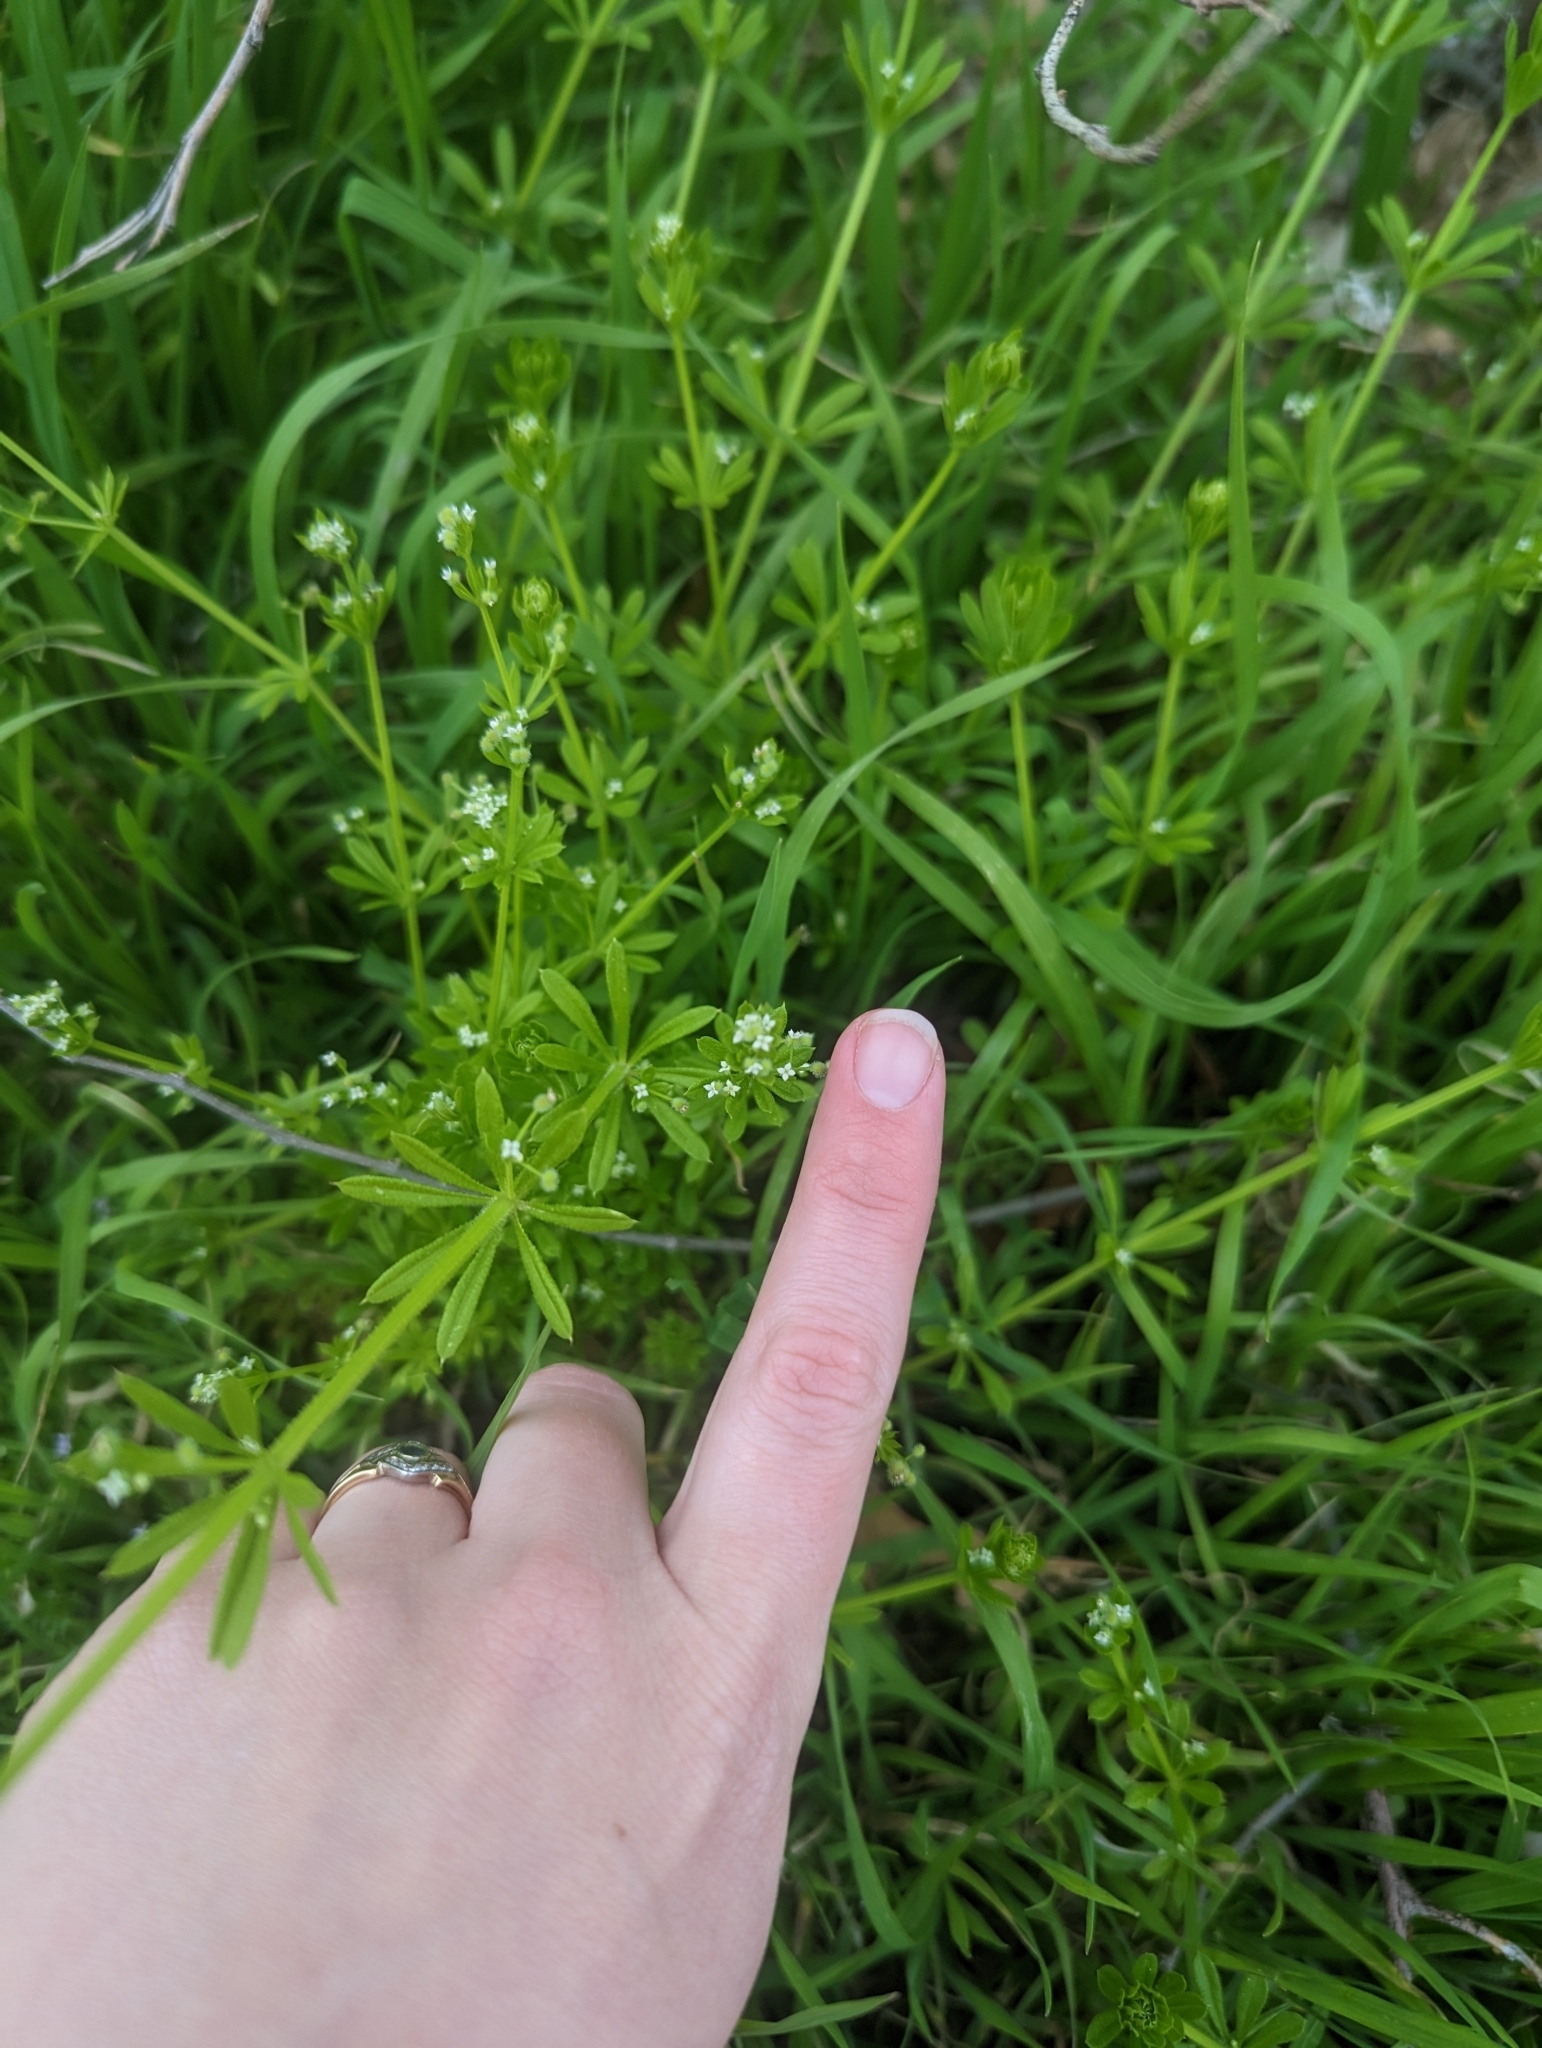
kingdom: Plantae
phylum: Tracheophyta
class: Magnoliopsida
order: Gentianales
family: Rubiaceae
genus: Galium
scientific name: Galium aparine
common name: Cleavers
